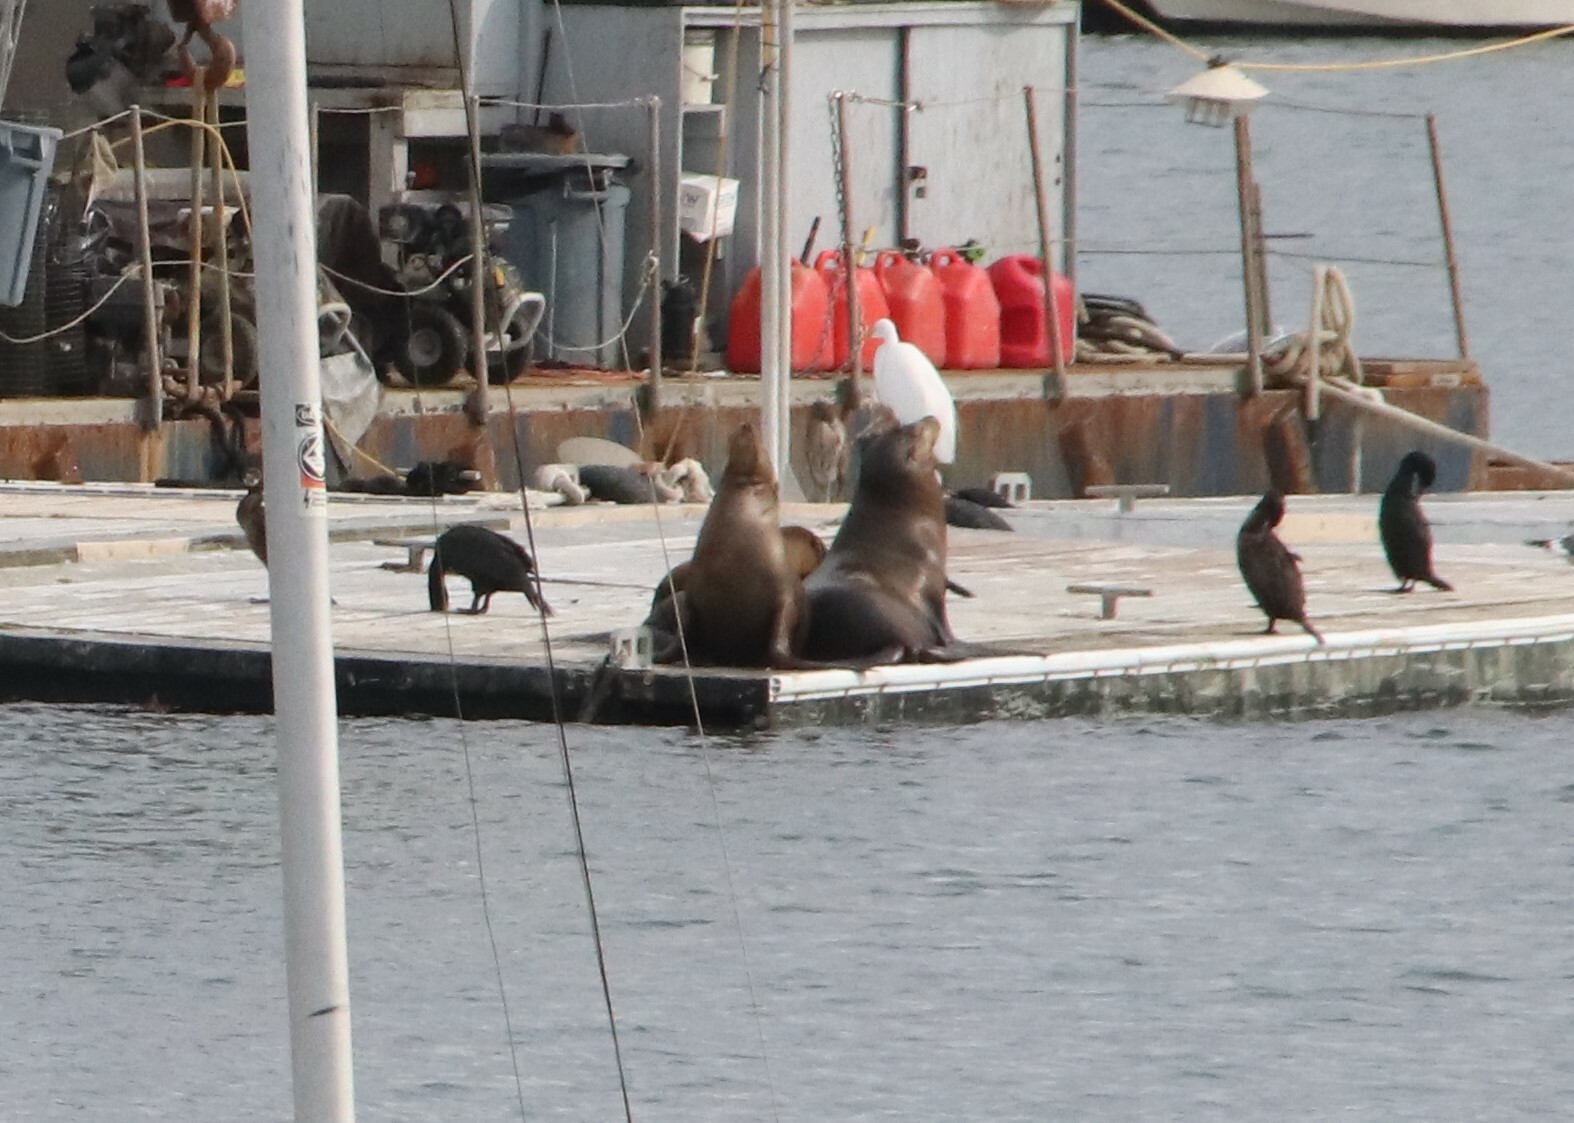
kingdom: Animalia
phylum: Chordata
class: Mammalia
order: Carnivora
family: Otariidae
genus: Zalophus
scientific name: Zalophus californianus
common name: California sea lion
